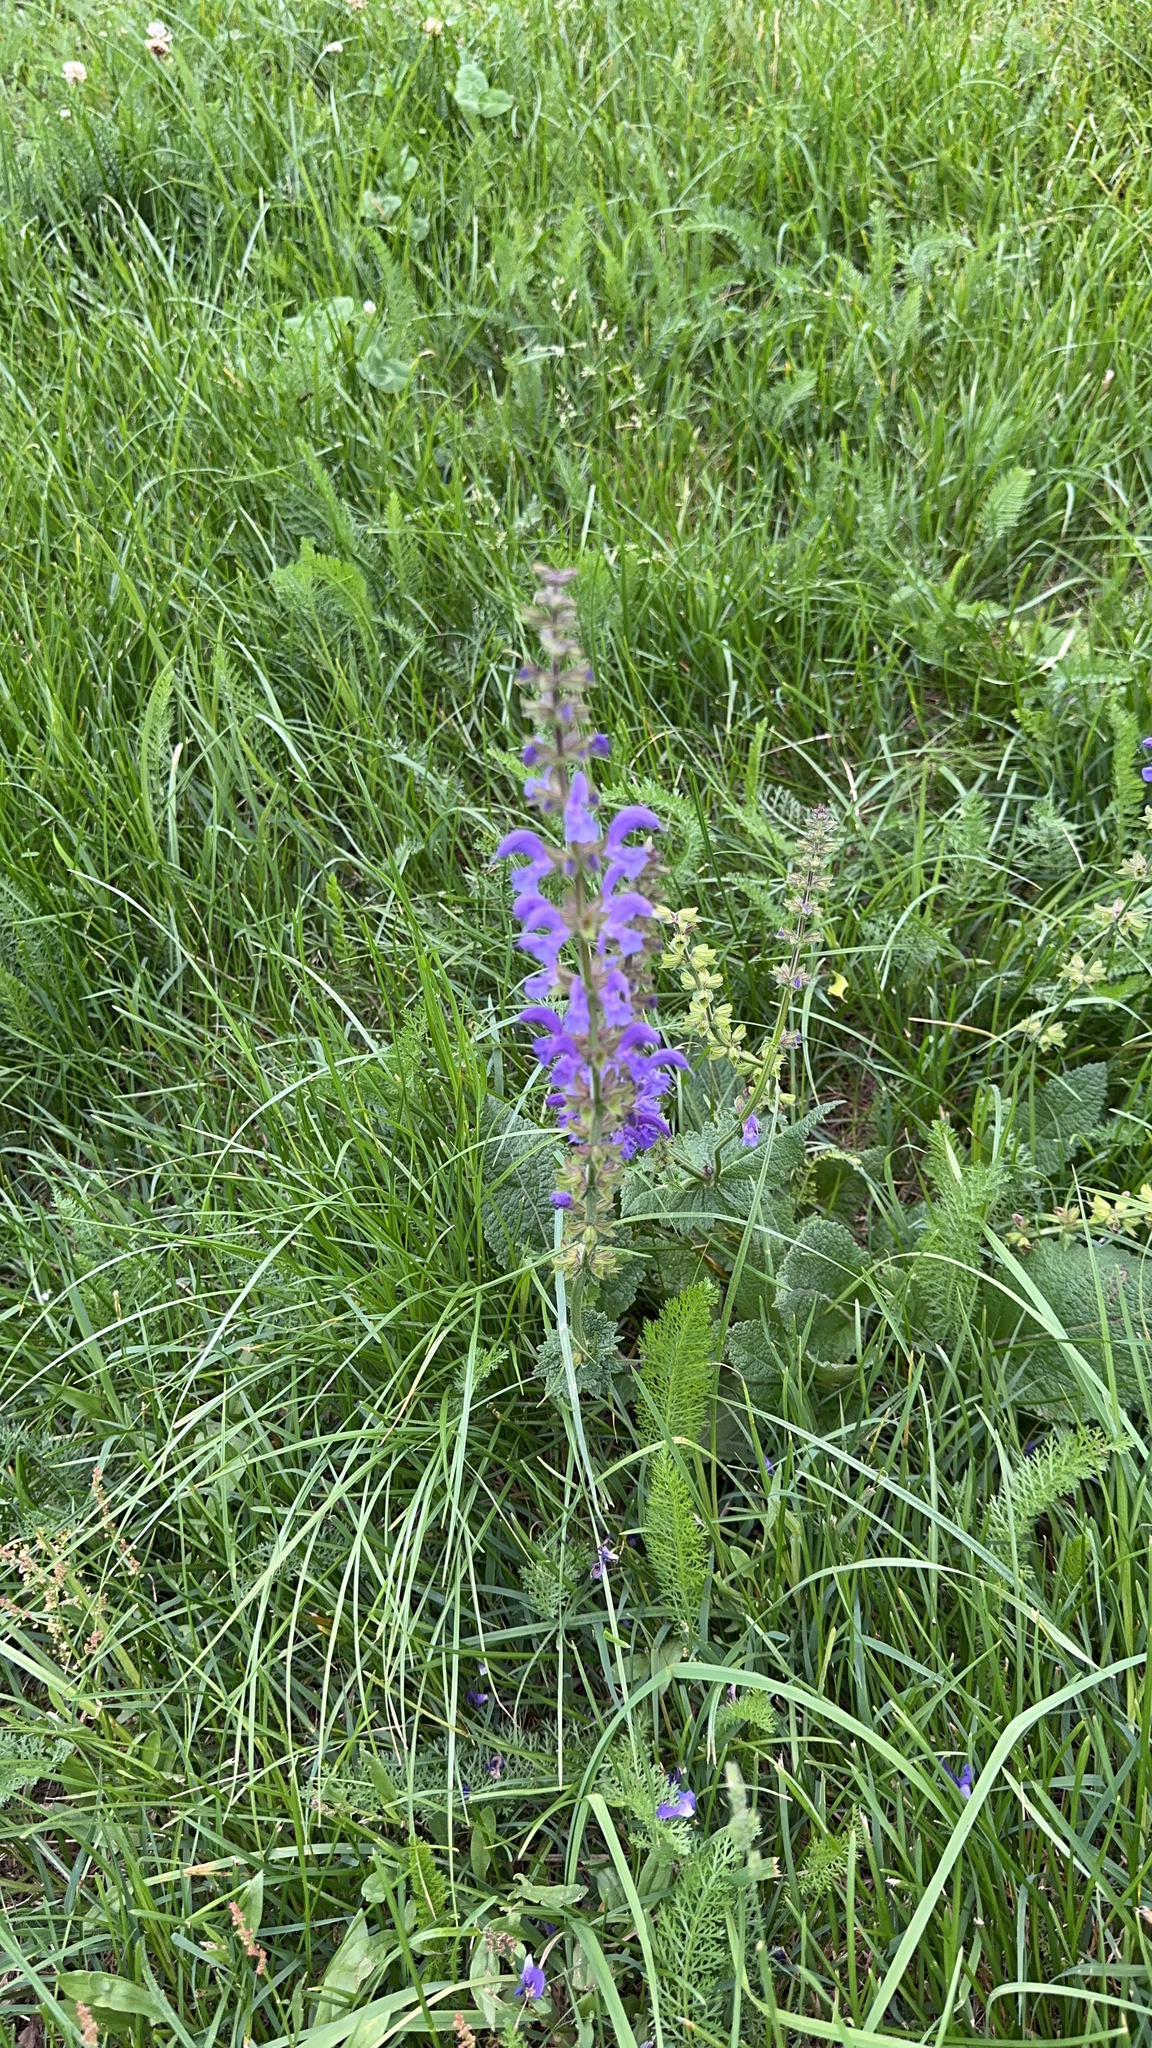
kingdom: Plantae
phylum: Tracheophyta
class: Magnoliopsida
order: Lamiales
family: Lamiaceae
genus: Salvia
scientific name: Salvia pratensis
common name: Meadow sage
